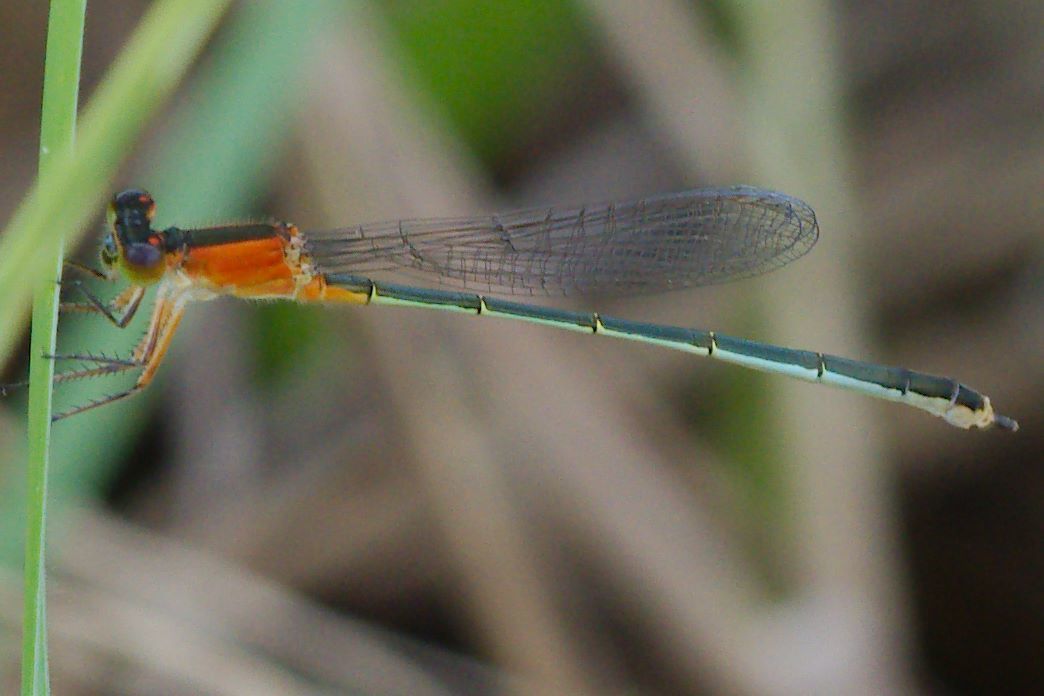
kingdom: Animalia
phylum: Arthropoda
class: Insecta
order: Odonata
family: Coenagrionidae
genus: Ischnura
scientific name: Ischnura ramburii
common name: Rambur's forktail
